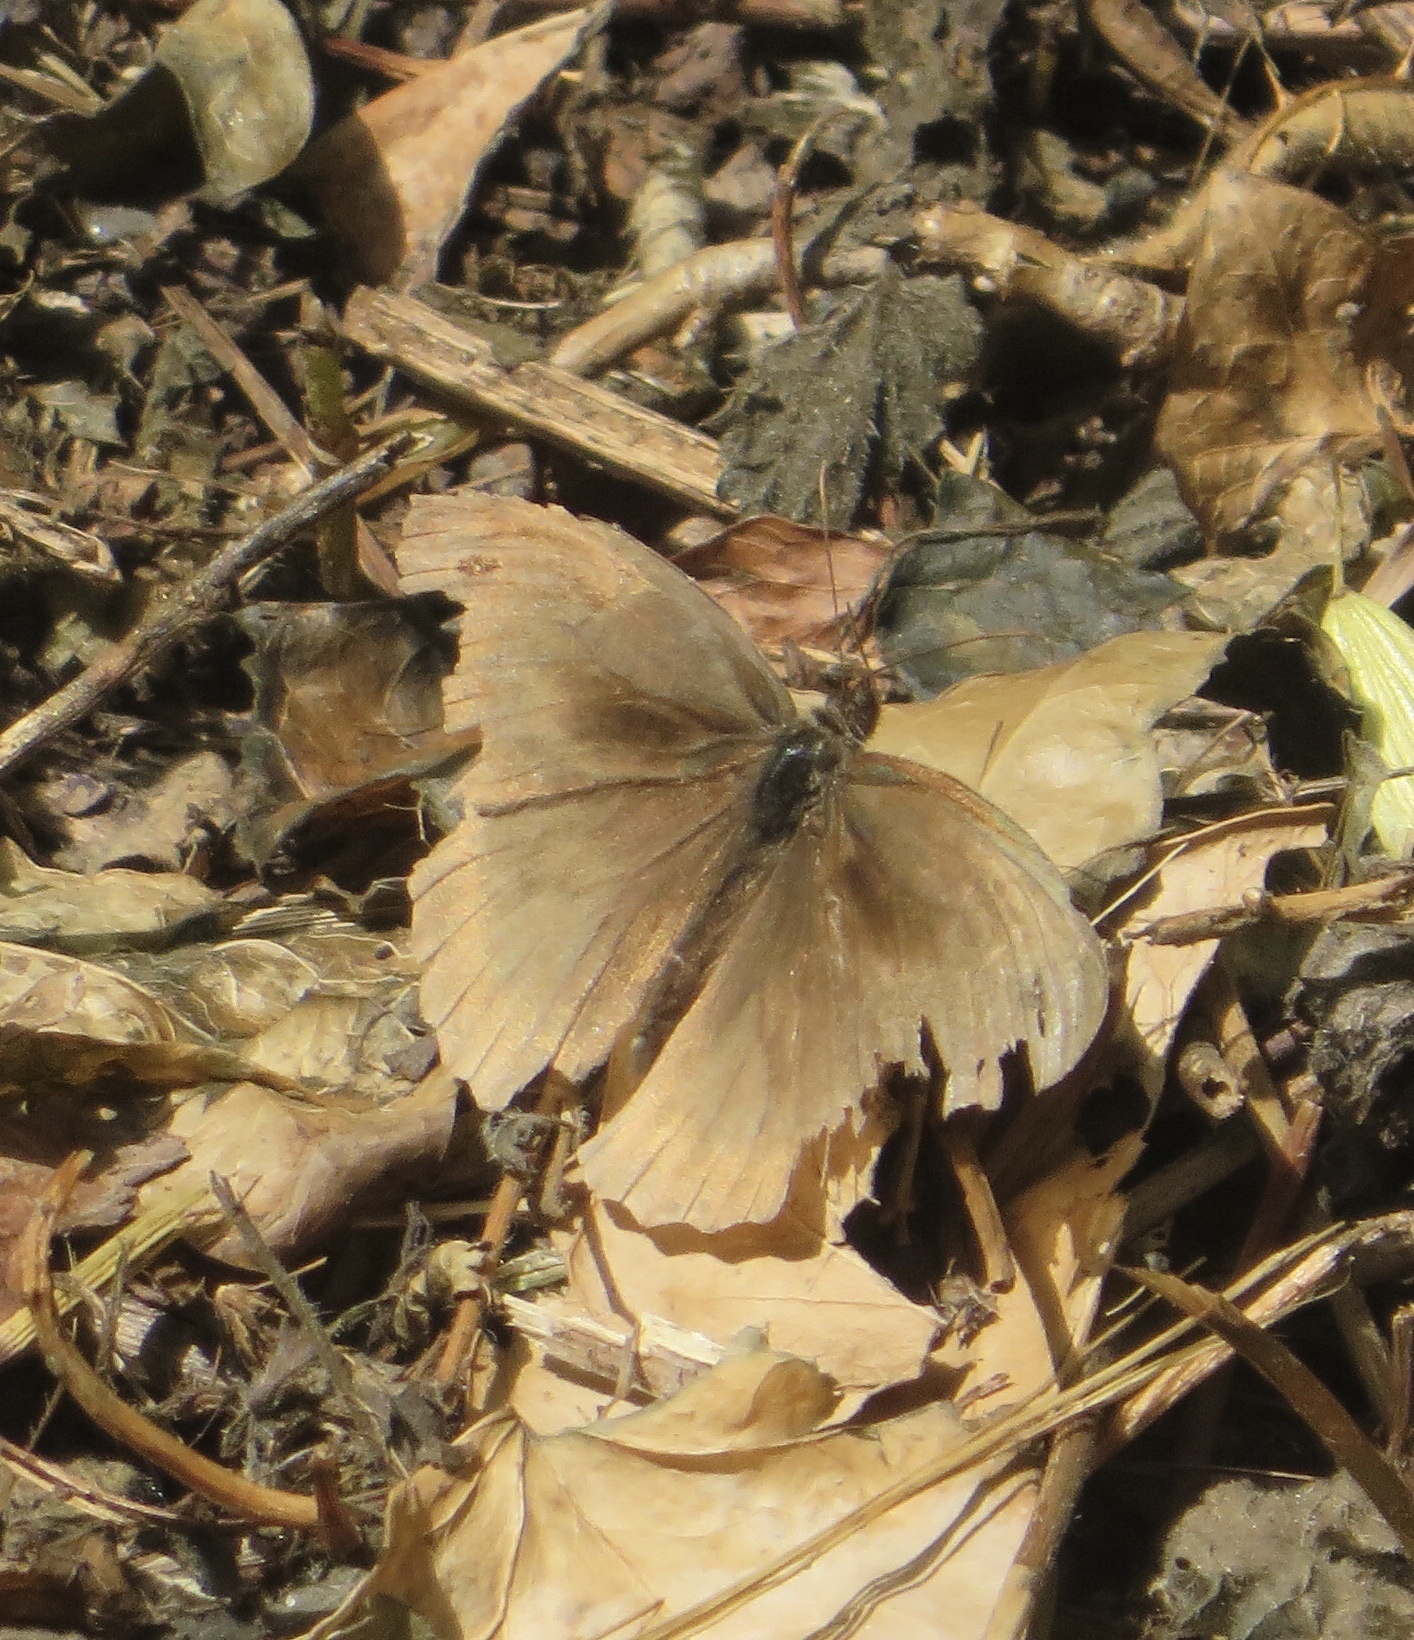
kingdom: Animalia
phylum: Arthropoda
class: Insecta
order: Lepidoptera
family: Nymphalidae
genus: Maniola
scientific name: Maniola jurtina
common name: Meadow brown
